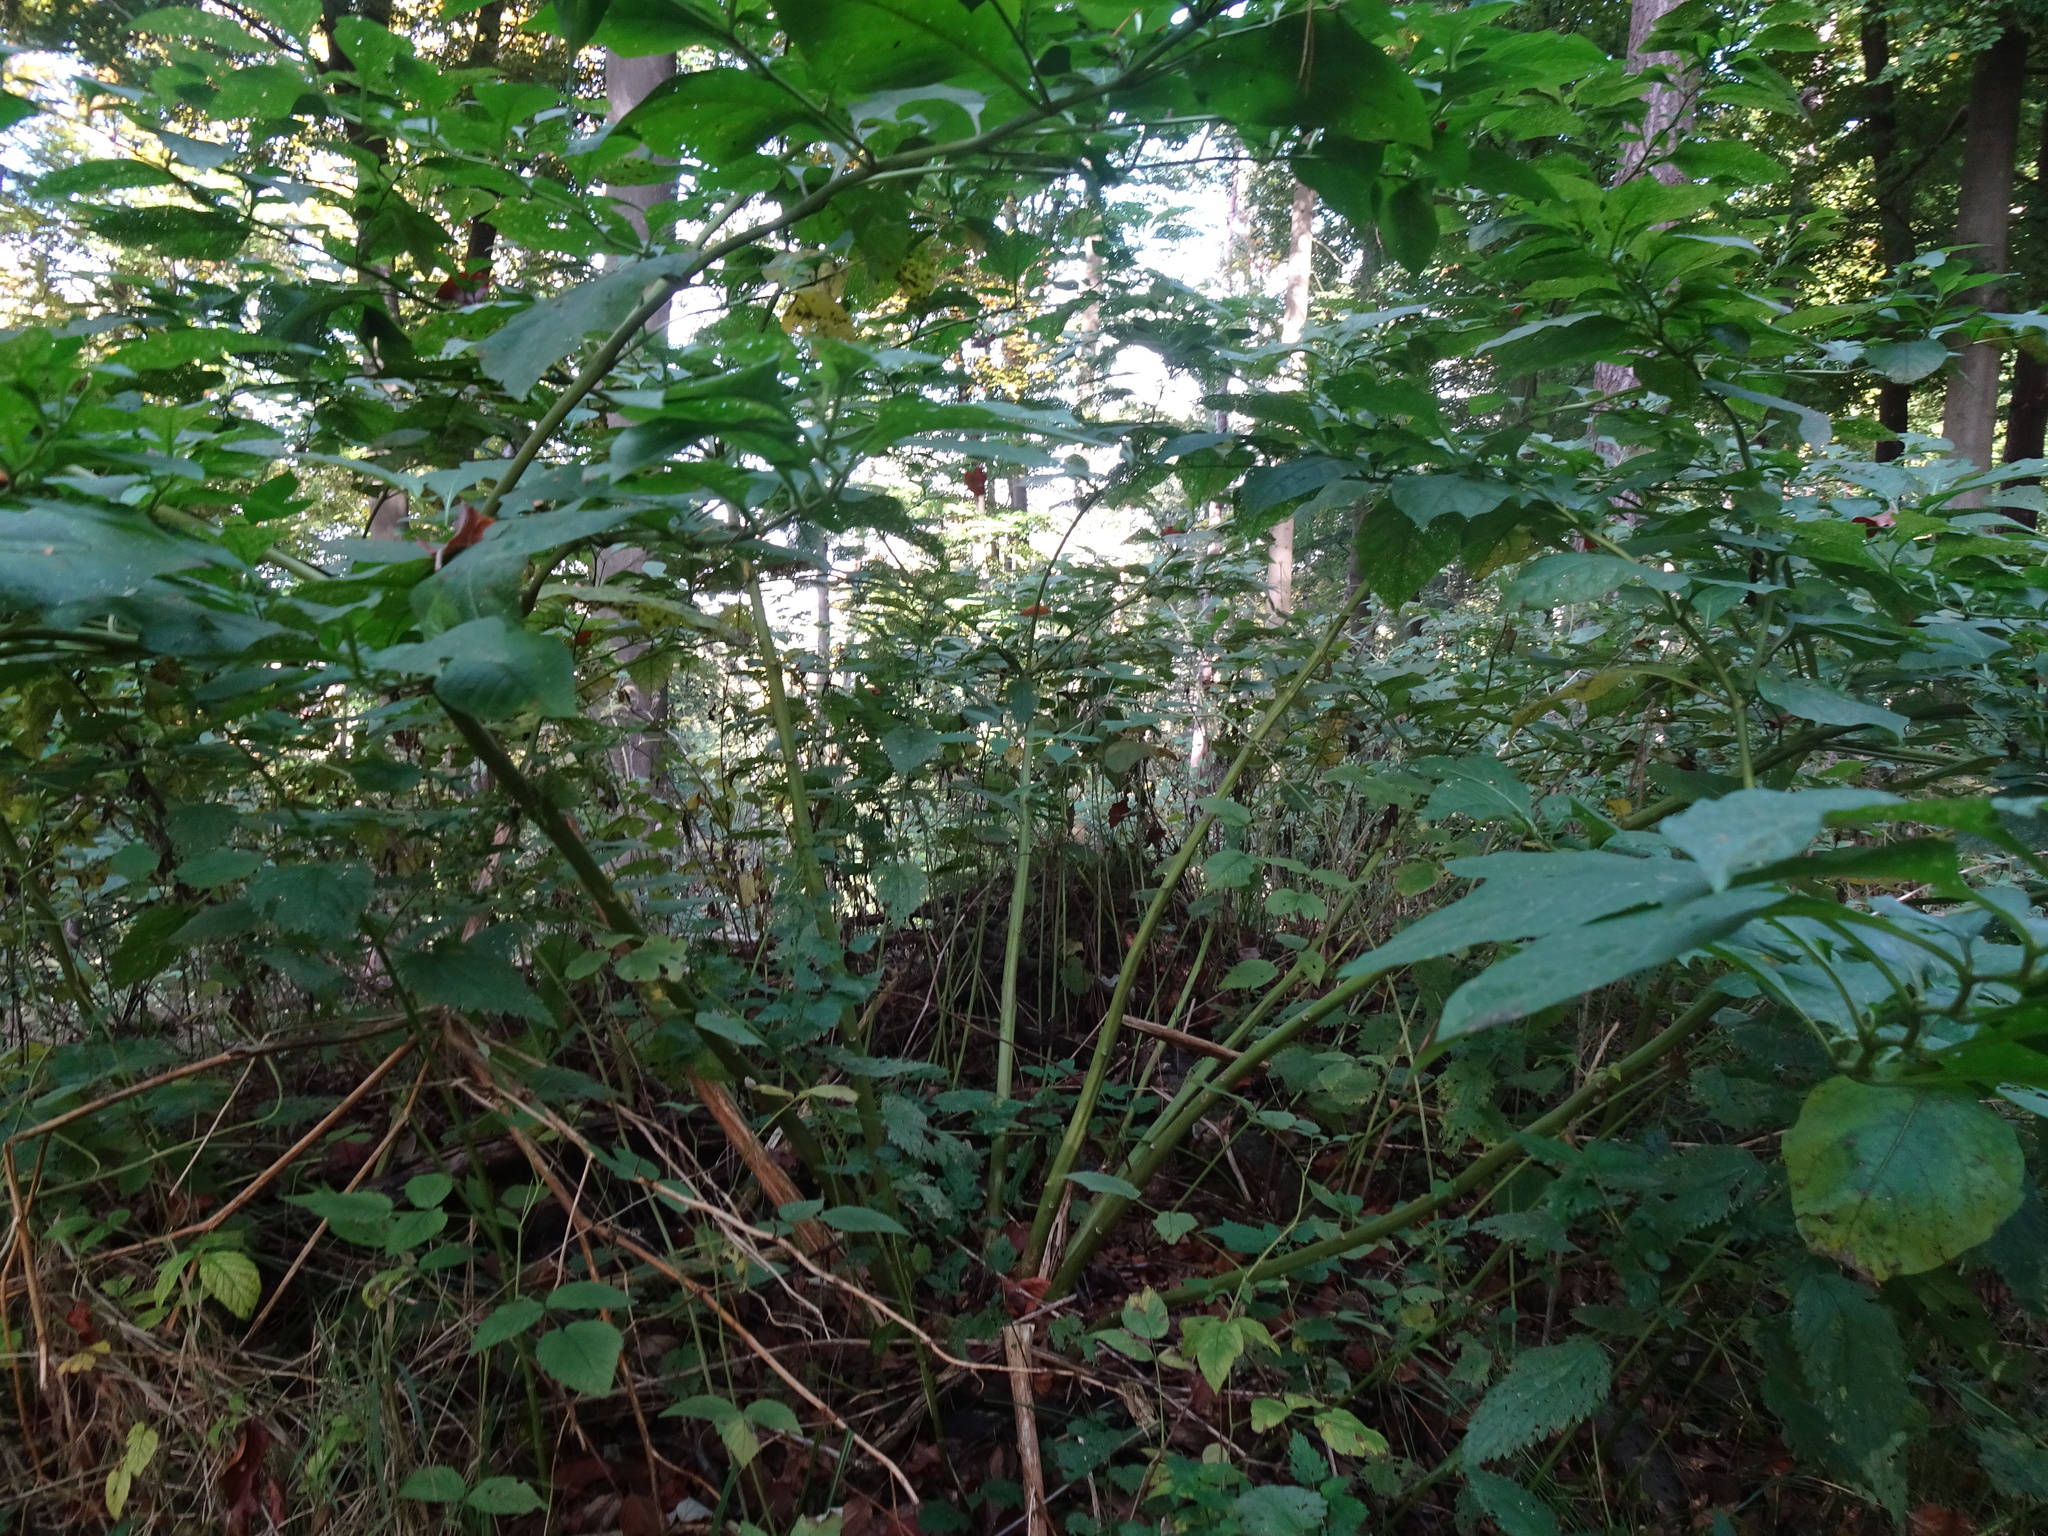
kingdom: Plantae
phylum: Tracheophyta
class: Magnoliopsida
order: Solanales
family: Solanaceae
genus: Atropa
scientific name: Atropa belladonna
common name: Deadly nightshade
